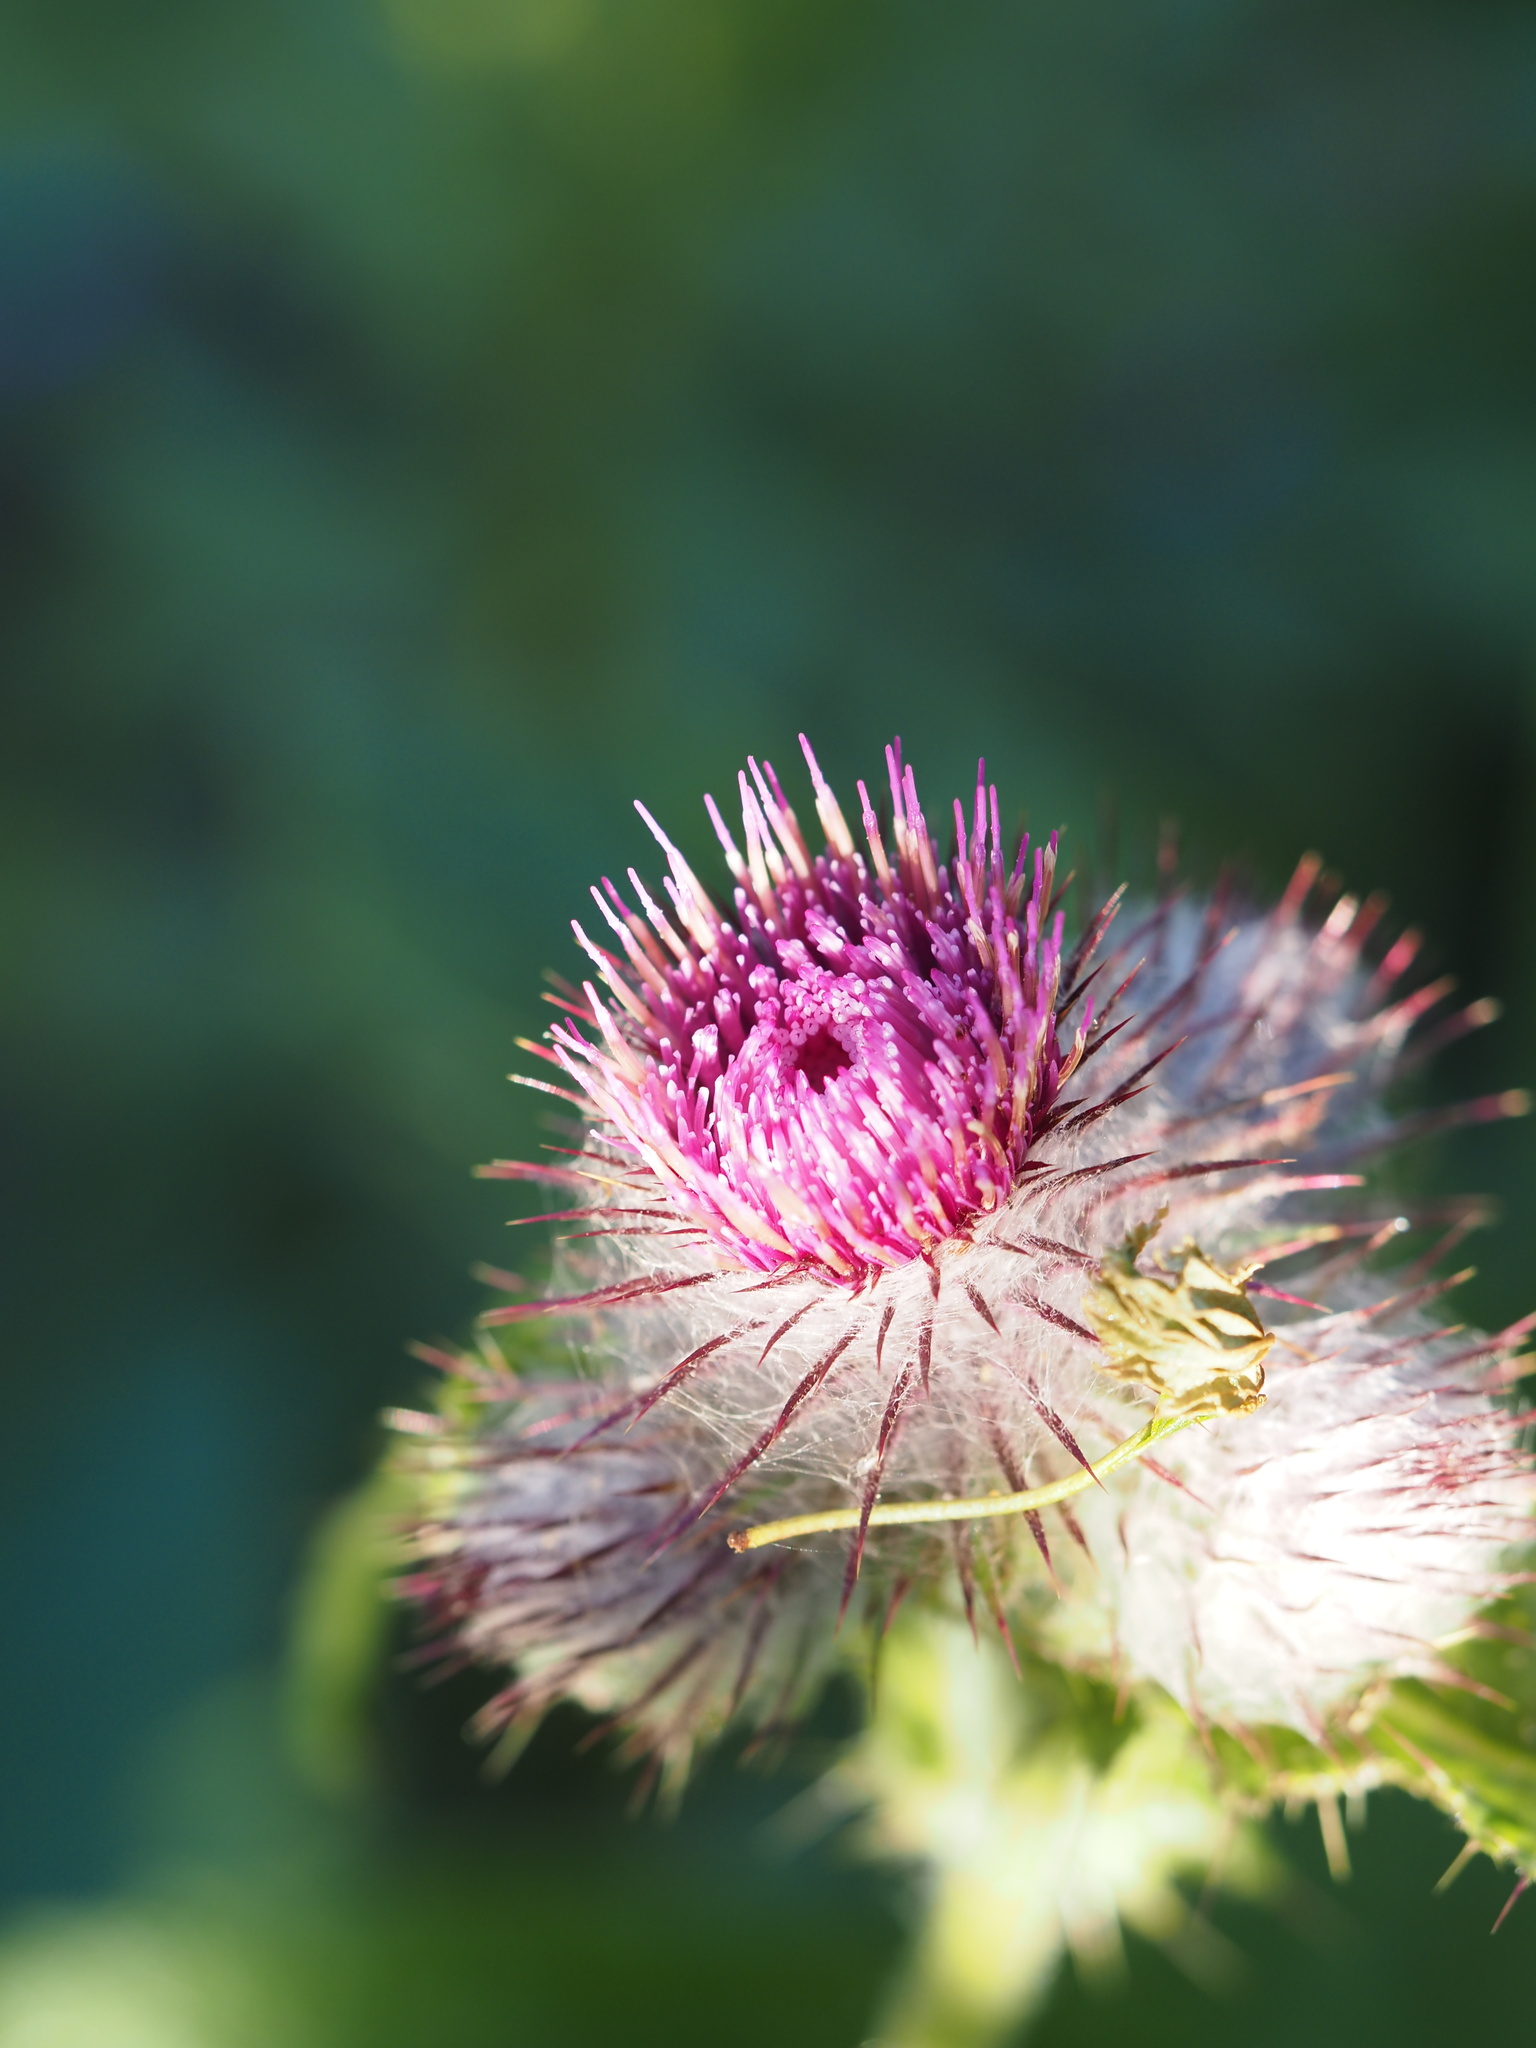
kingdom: Plantae
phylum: Tracheophyta
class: Magnoliopsida
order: Asterales
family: Asteraceae
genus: Cirsium
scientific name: Cirsium edule
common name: Indian thistle
